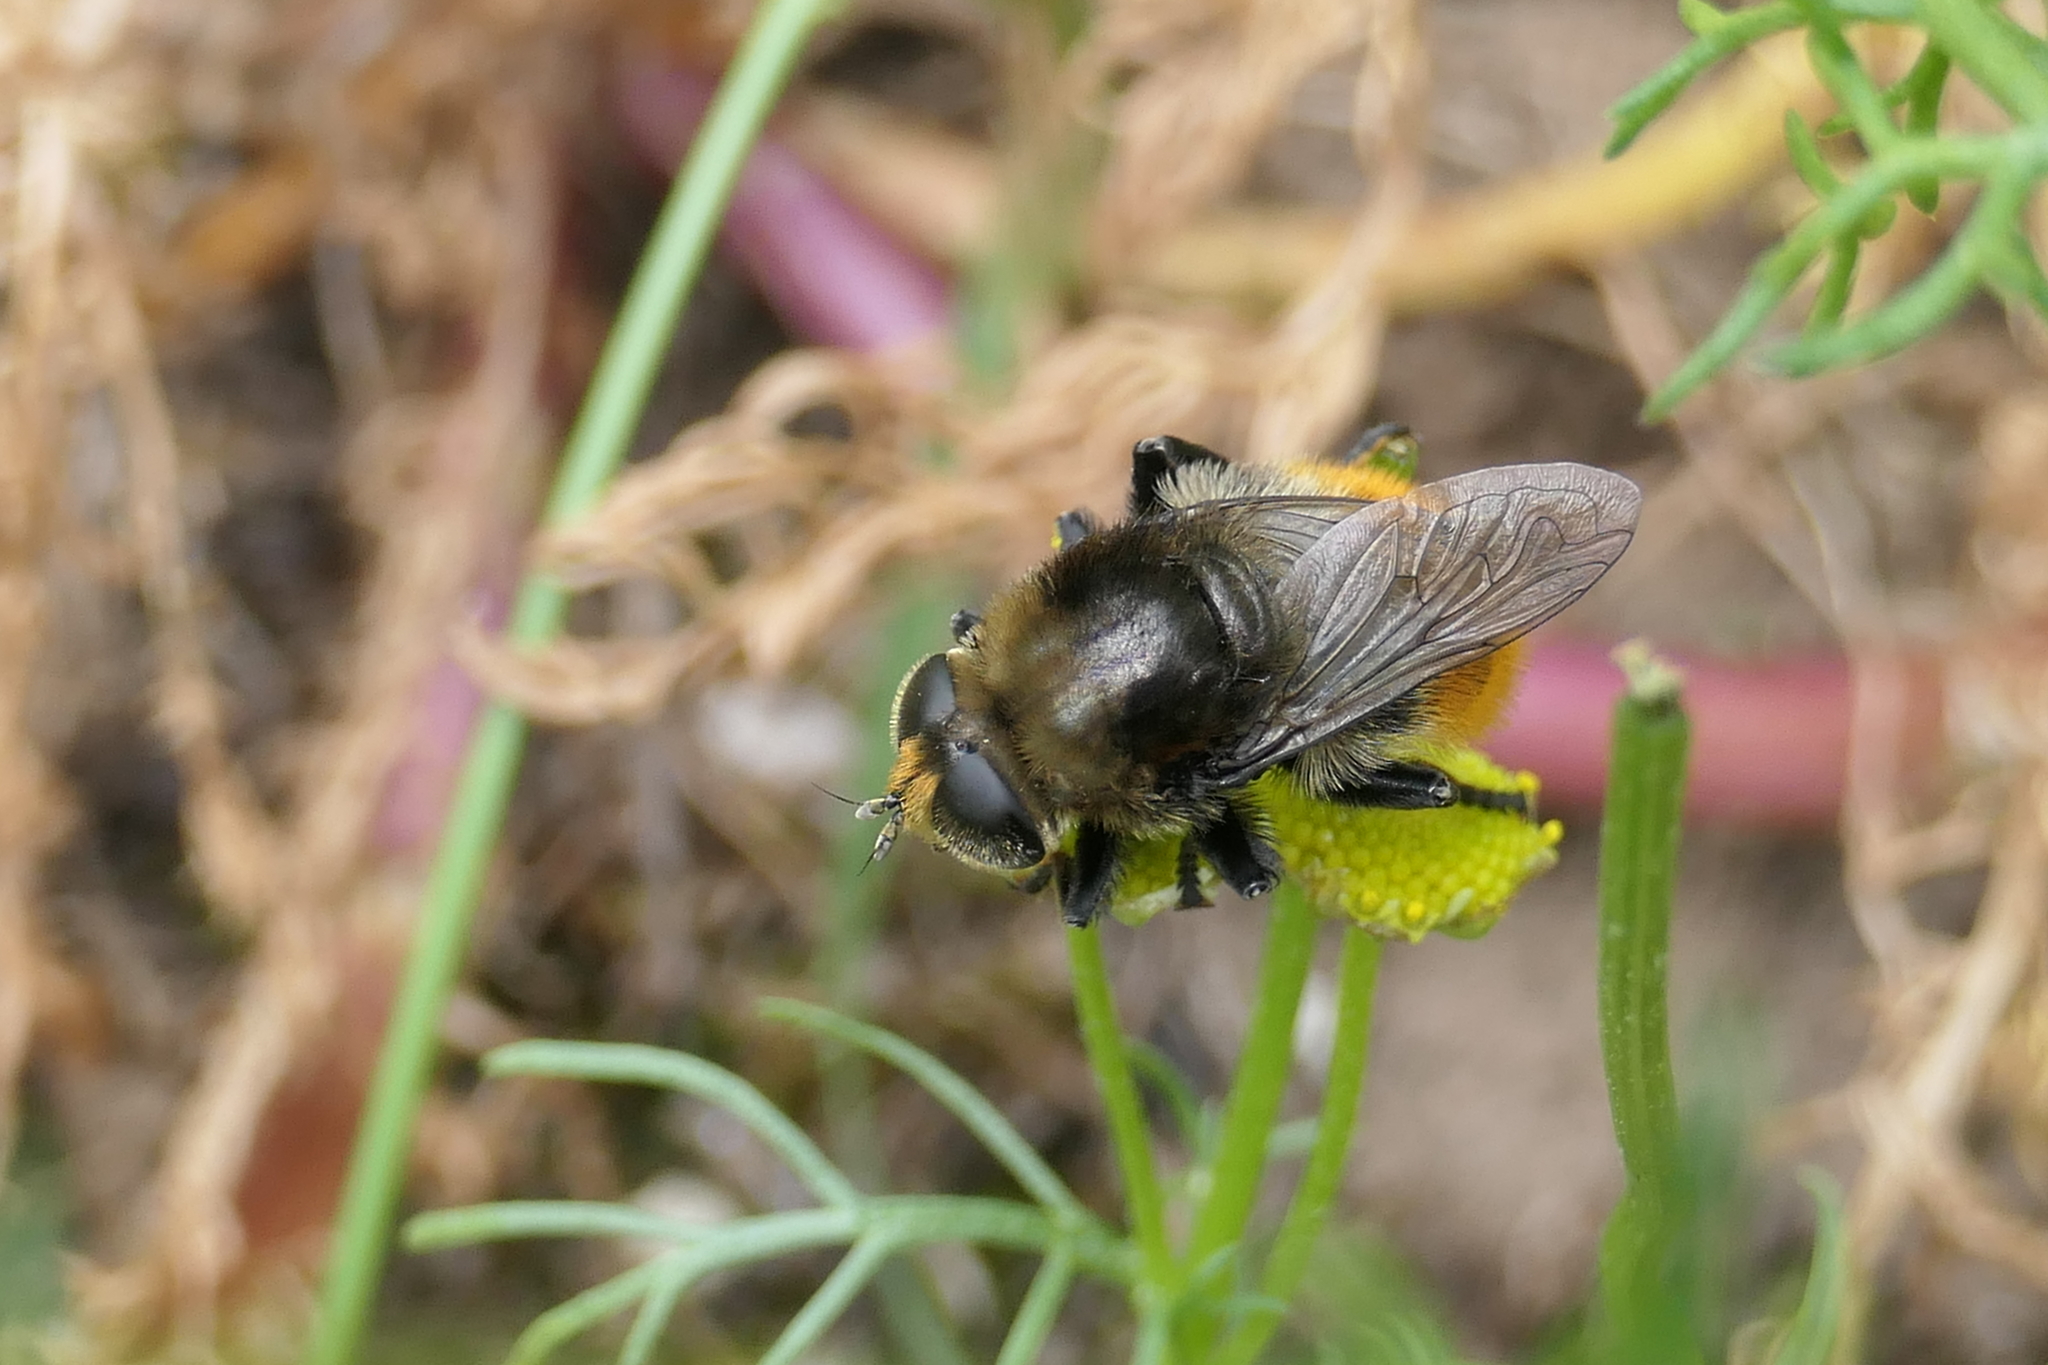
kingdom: Animalia
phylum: Arthropoda
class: Insecta
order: Diptera
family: Syrphidae
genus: Merodon
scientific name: Merodon equestris
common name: Greater bulb-fly
